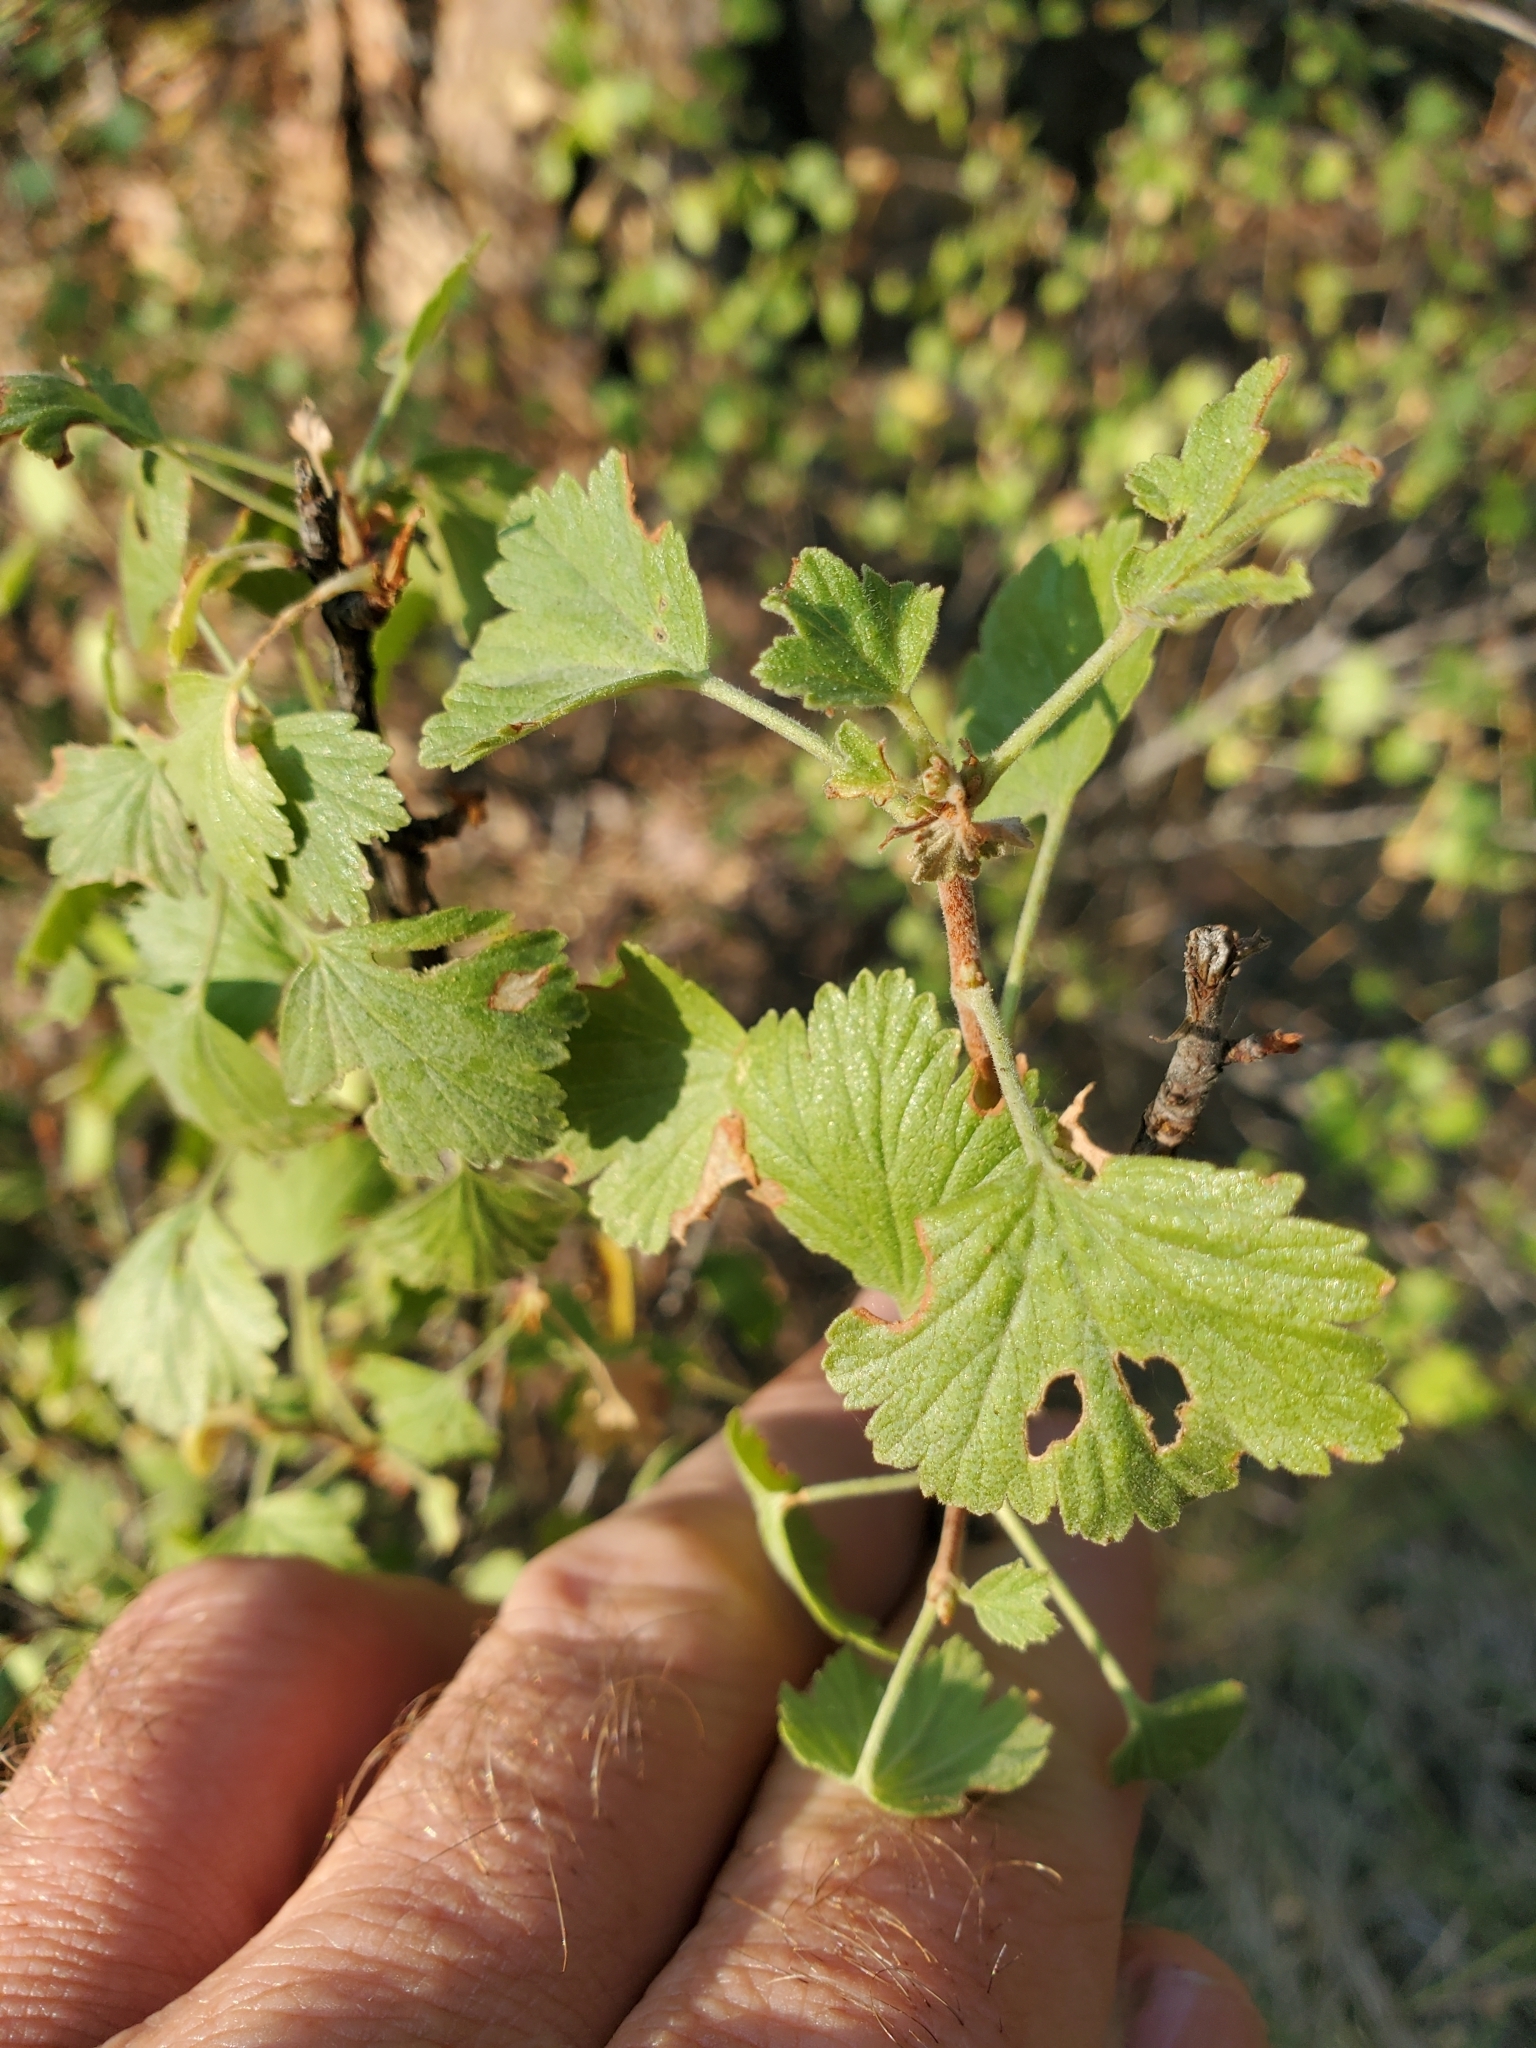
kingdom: Plantae
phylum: Tracheophyta
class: Magnoliopsida
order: Saxifragales
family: Grossulariaceae
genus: Ribes
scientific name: Ribes cereum
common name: Wax currant
